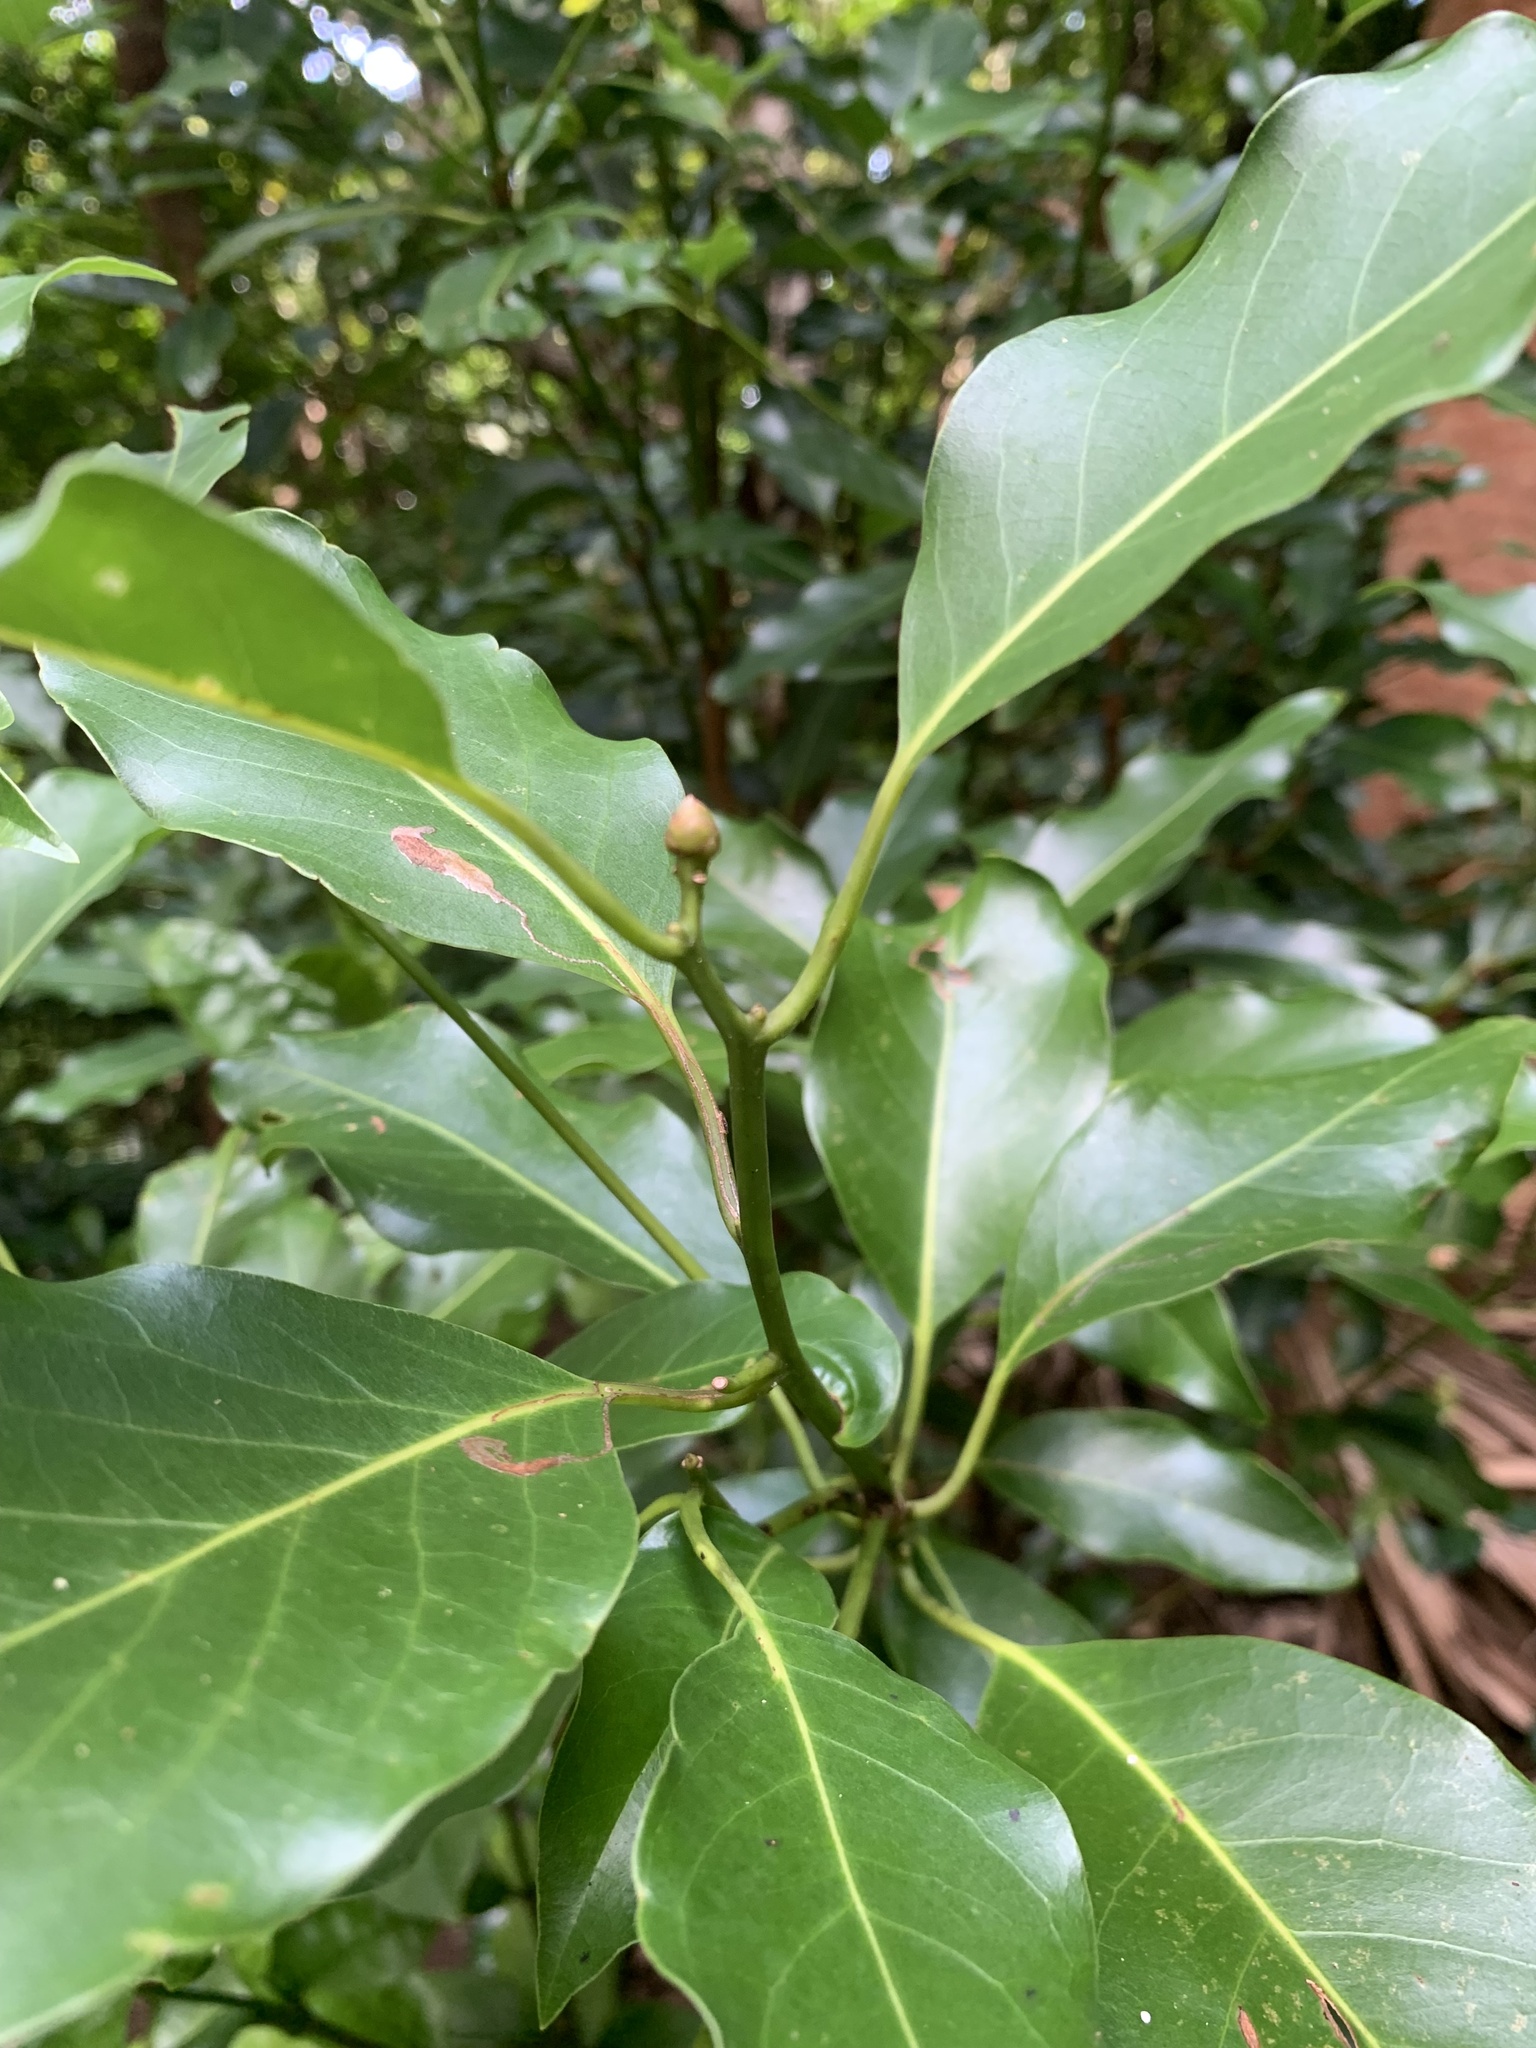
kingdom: Plantae
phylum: Tracheophyta
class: Magnoliopsida
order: Laurales
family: Lauraceae
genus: Machilus
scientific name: Machilus boninensis
